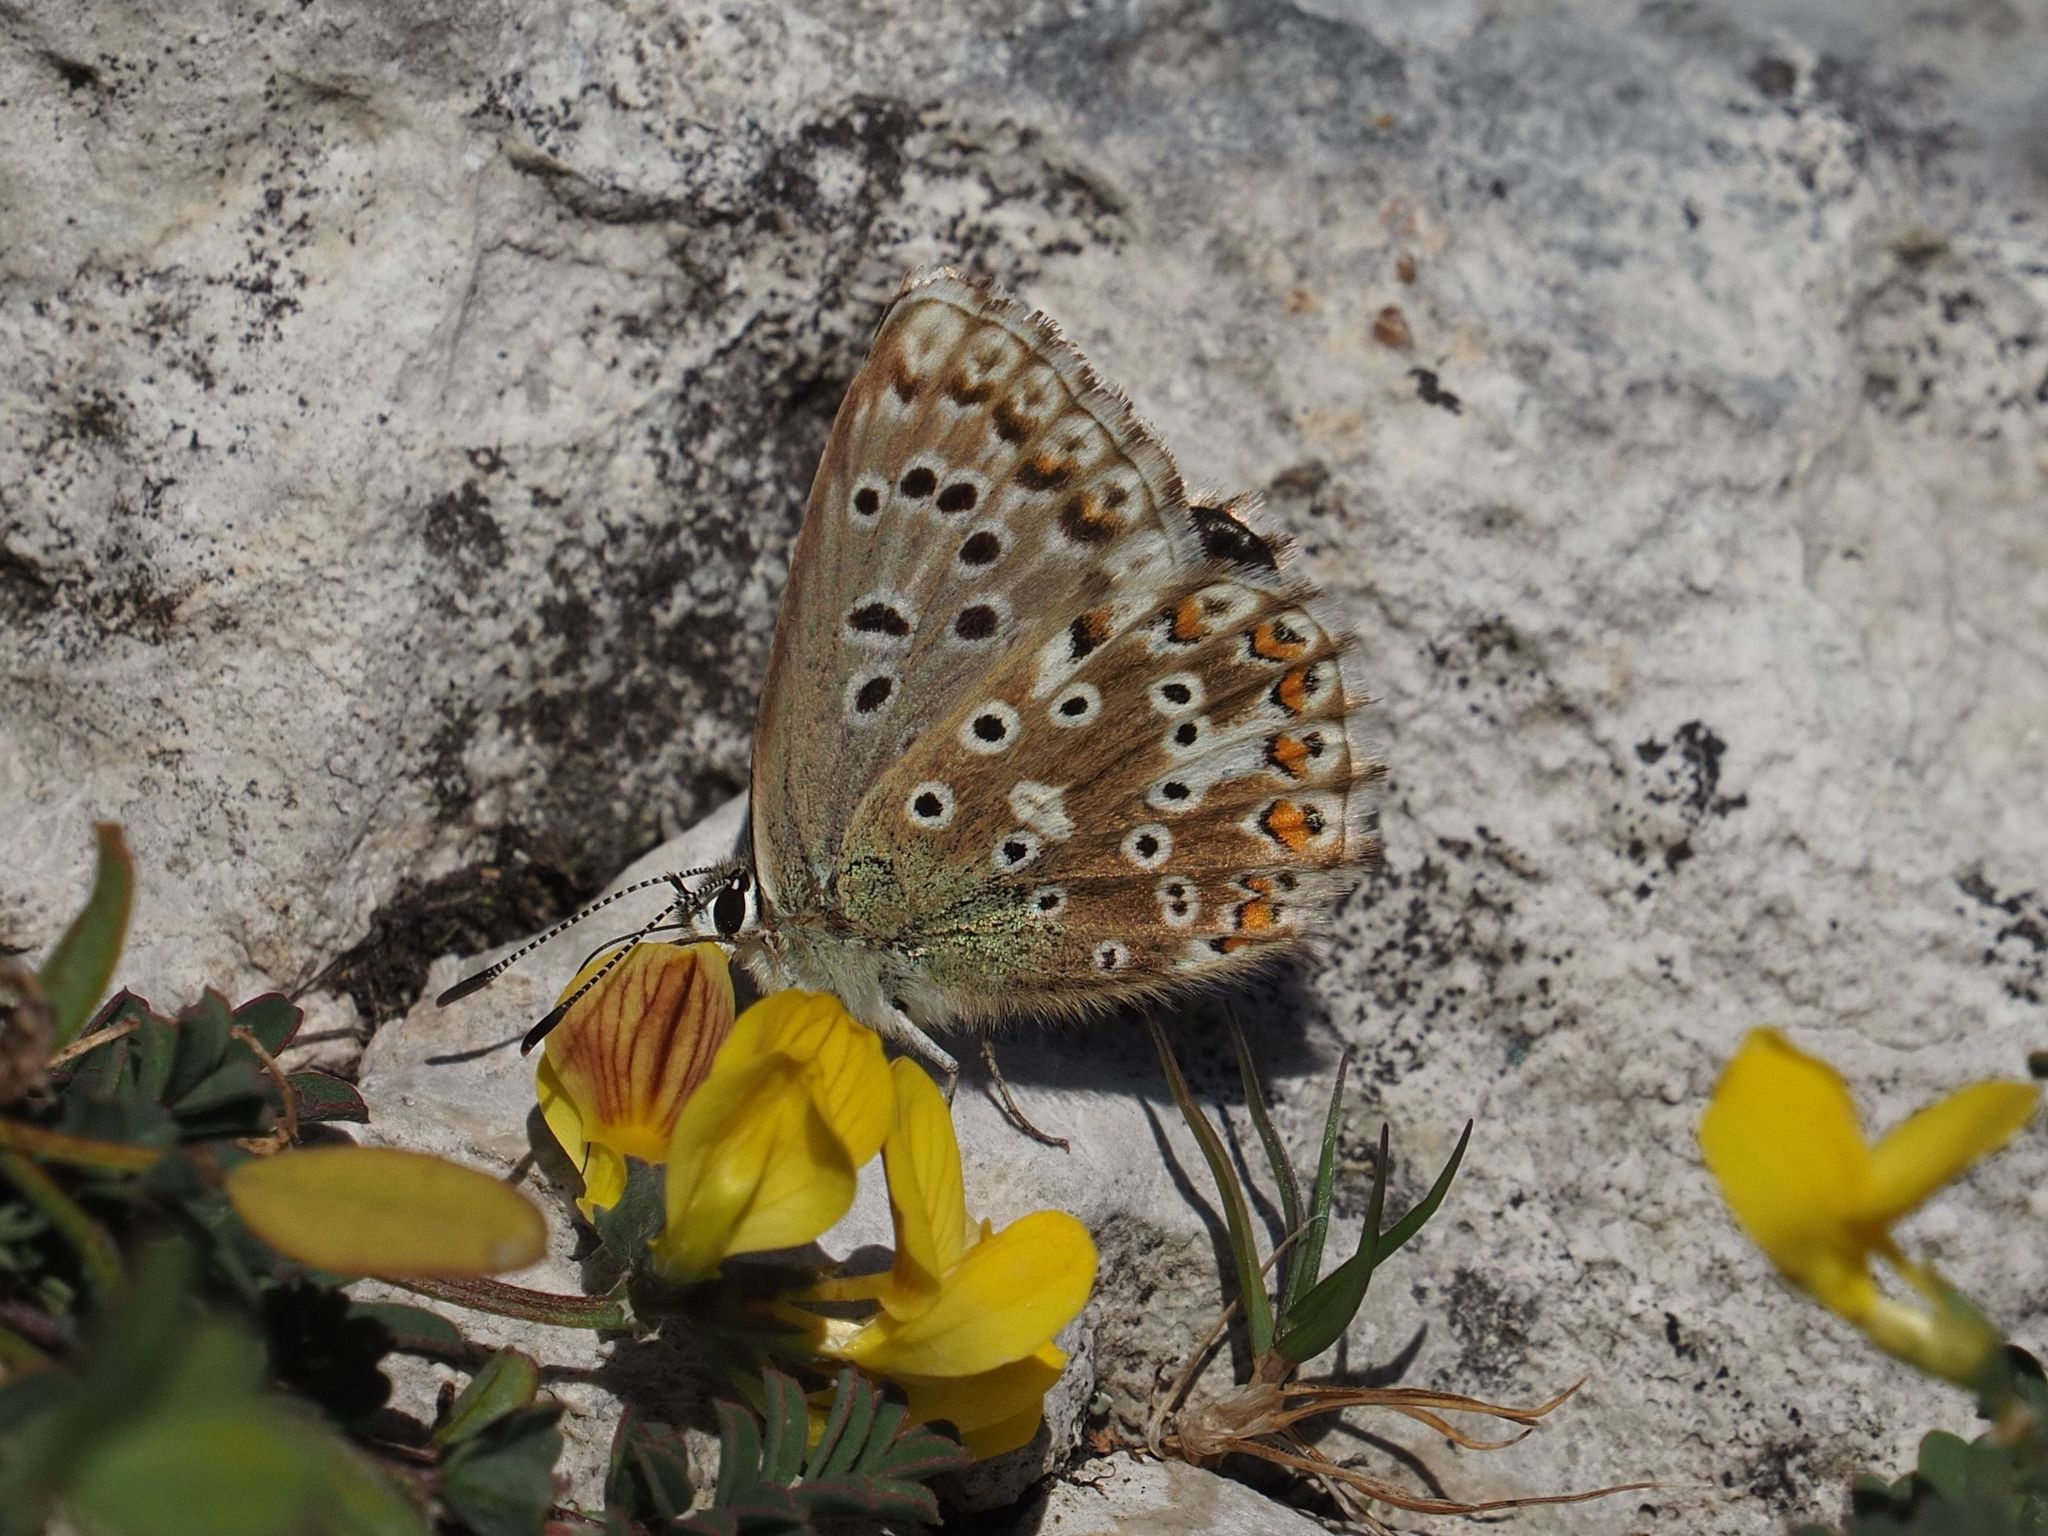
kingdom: Animalia
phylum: Arthropoda
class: Insecta
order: Lepidoptera
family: Lycaenidae
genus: Lysandra
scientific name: Lysandra coridon
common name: Chalkhill blue
